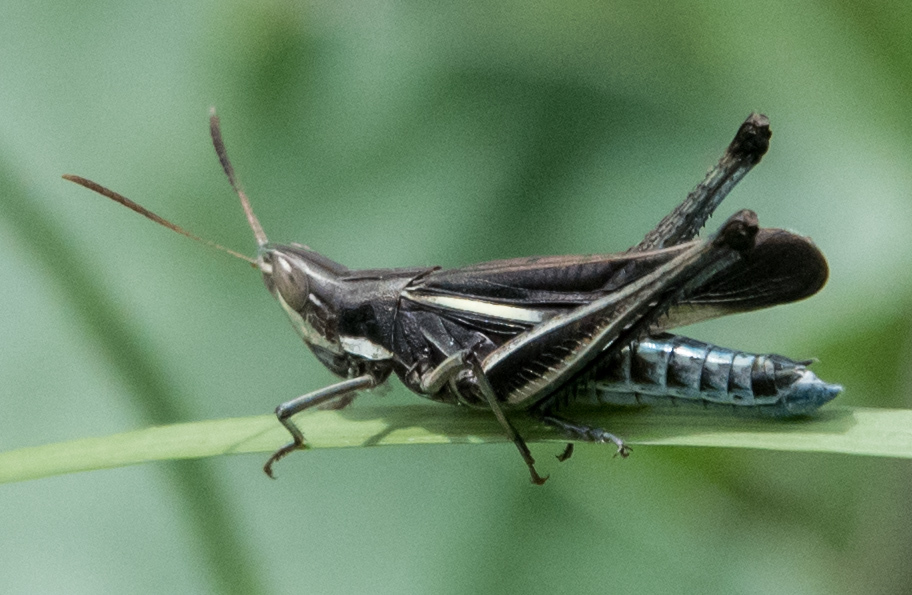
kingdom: Animalia
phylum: Arthropoda
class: Insecta
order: Orthoptera
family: Acrididae
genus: Syrbula
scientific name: Syrbula montezuma
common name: Montezuma's grasshopper
